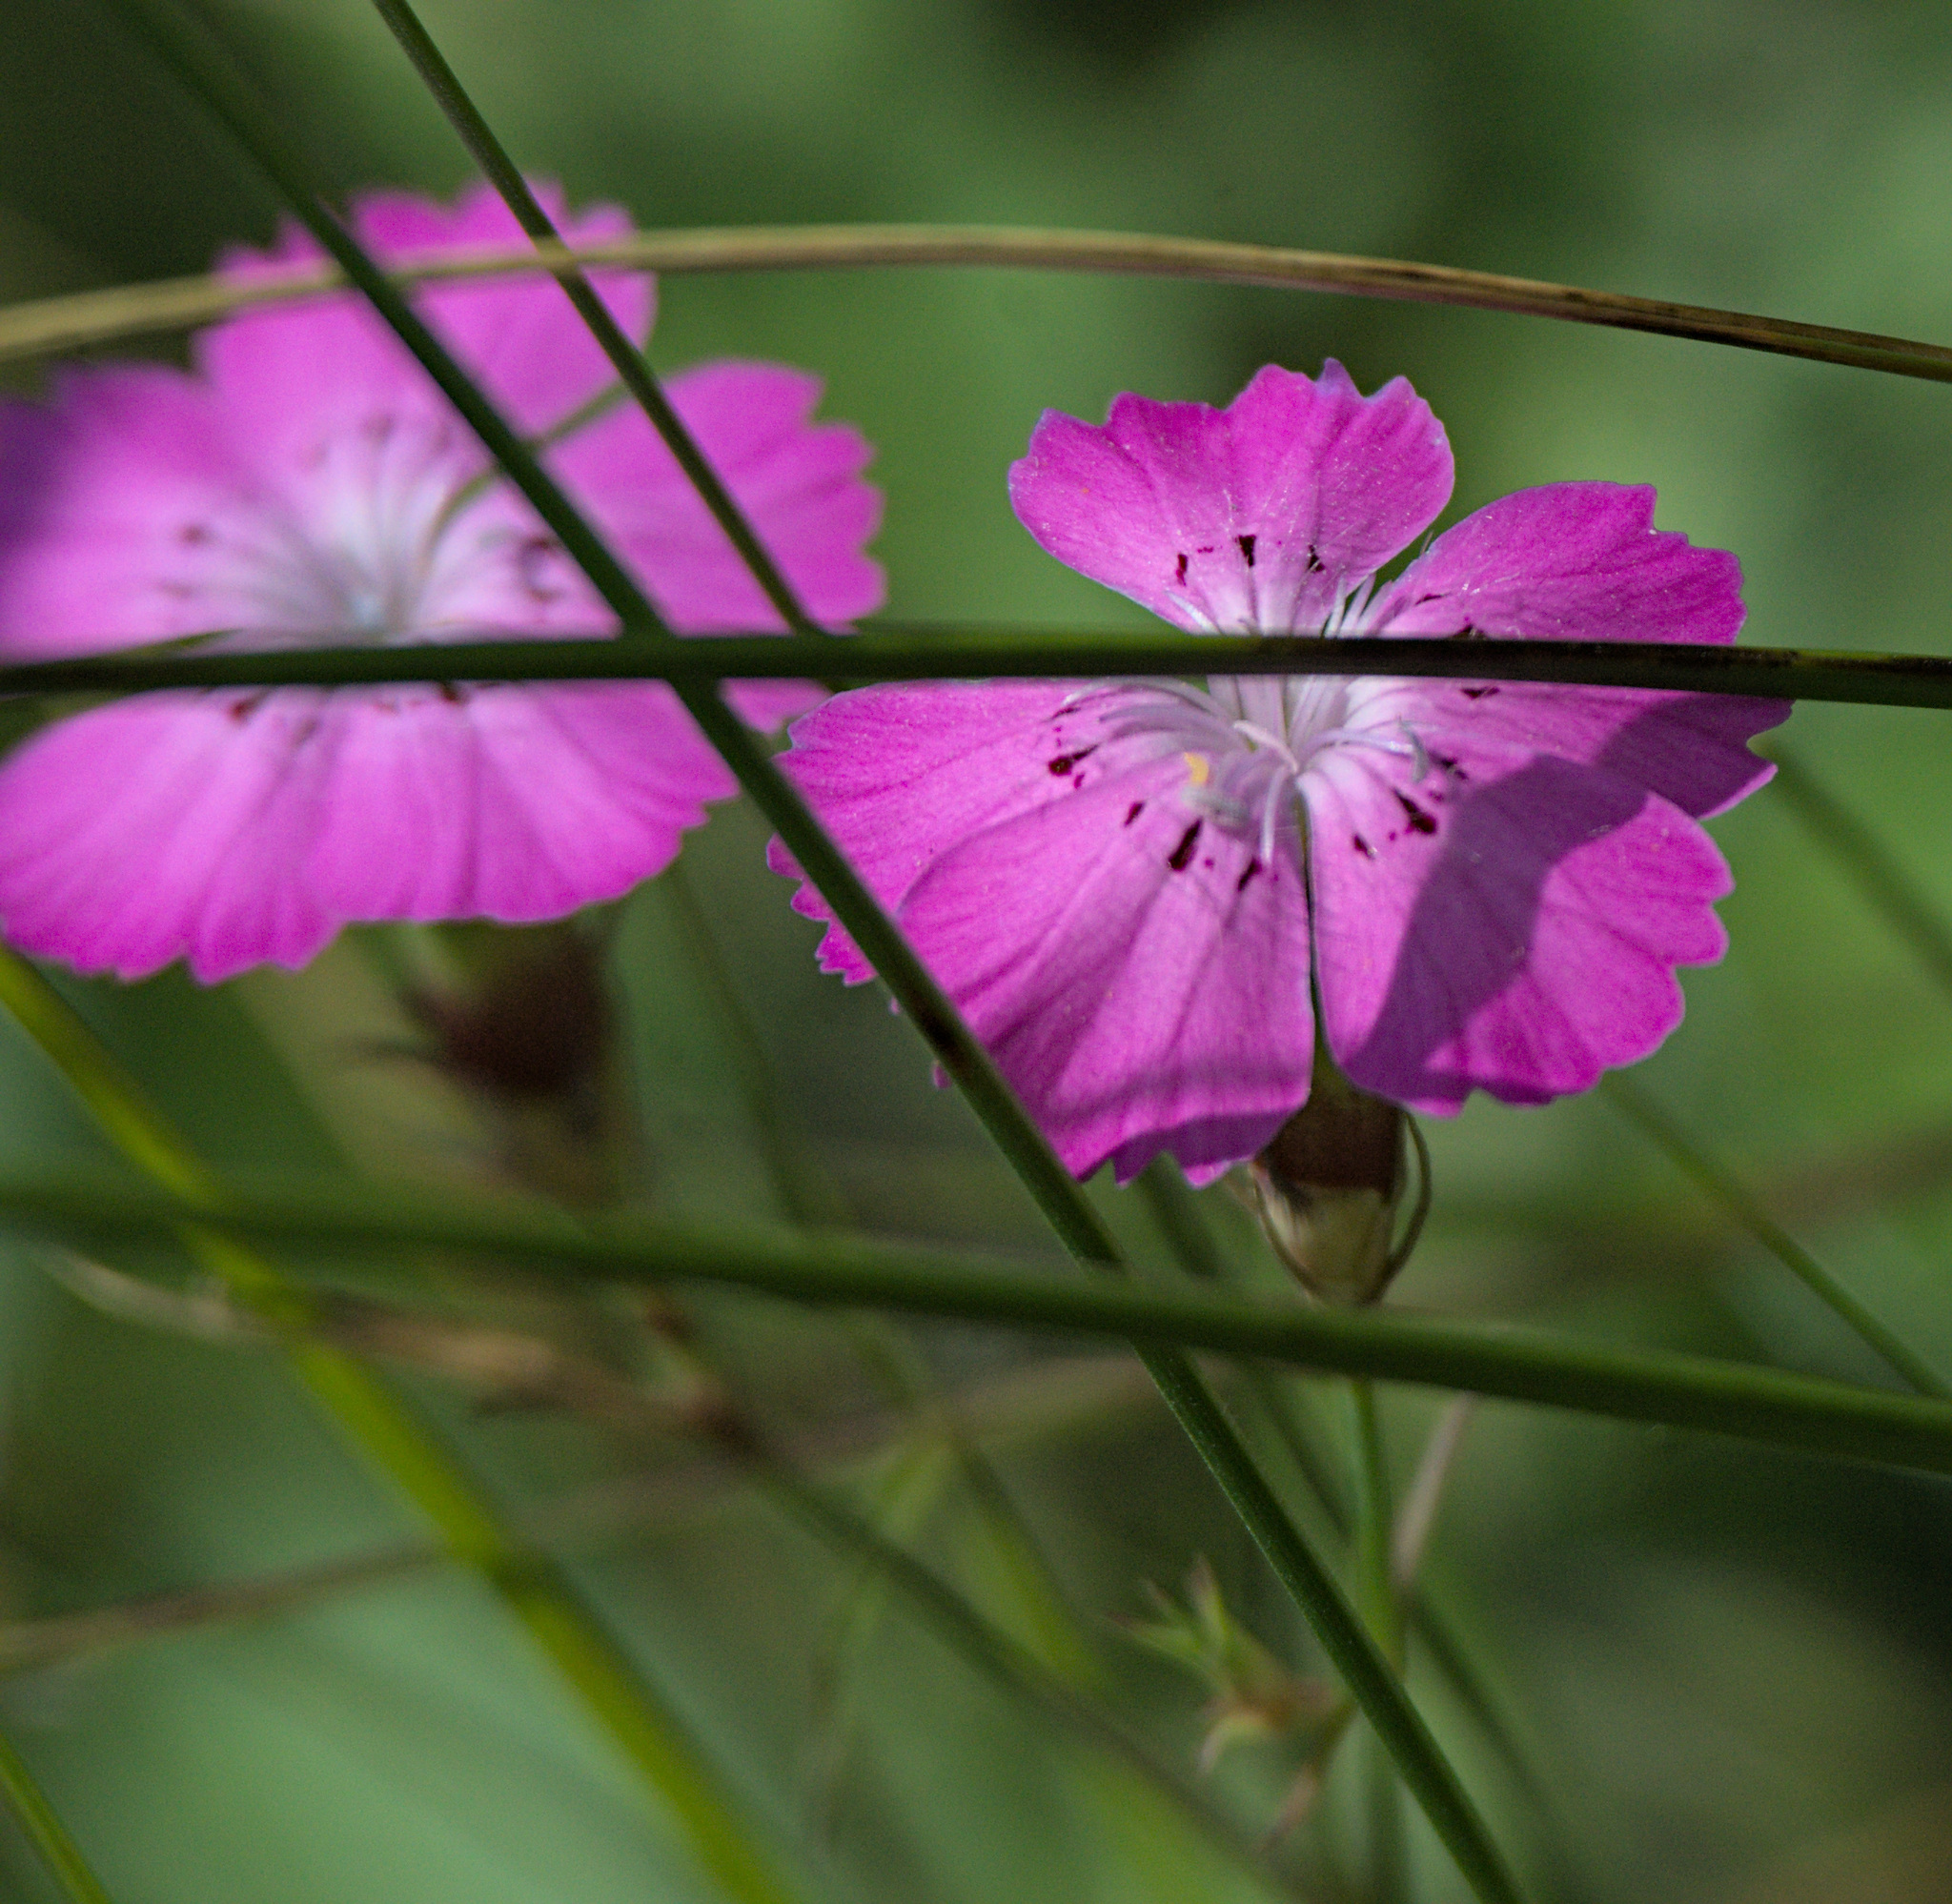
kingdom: Plantae
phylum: Tracheophyta
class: Magnoliopsida
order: Caryophyllales
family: Caryophyllaceae
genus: Dianthus
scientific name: Dianthus chinensis
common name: Rainbow pink
